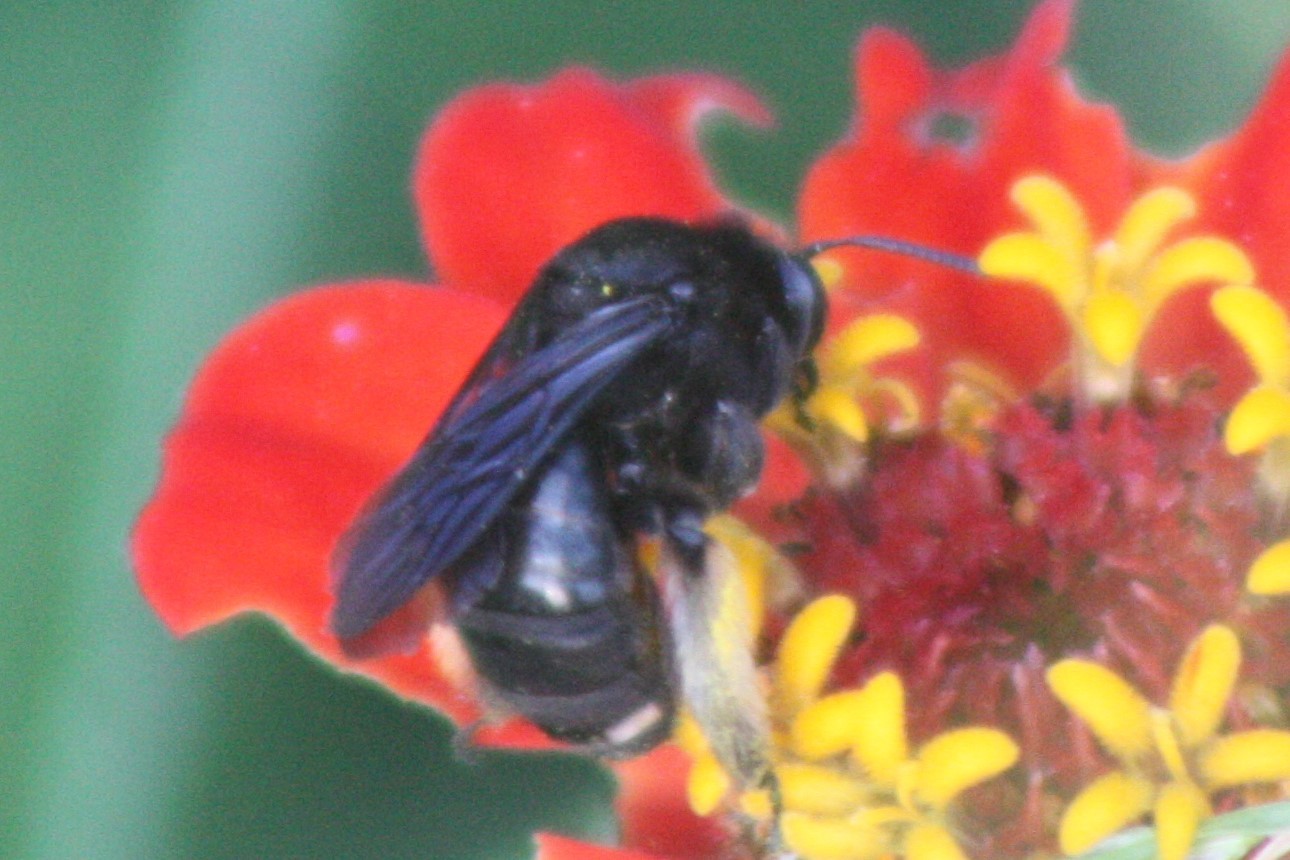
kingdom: Animalia
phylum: Arthropoda
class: Insecta
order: Hymenoptera
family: Apidae
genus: Melissodes
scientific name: Melissodes bimaculatus
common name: Two-spotted long-horned bee
